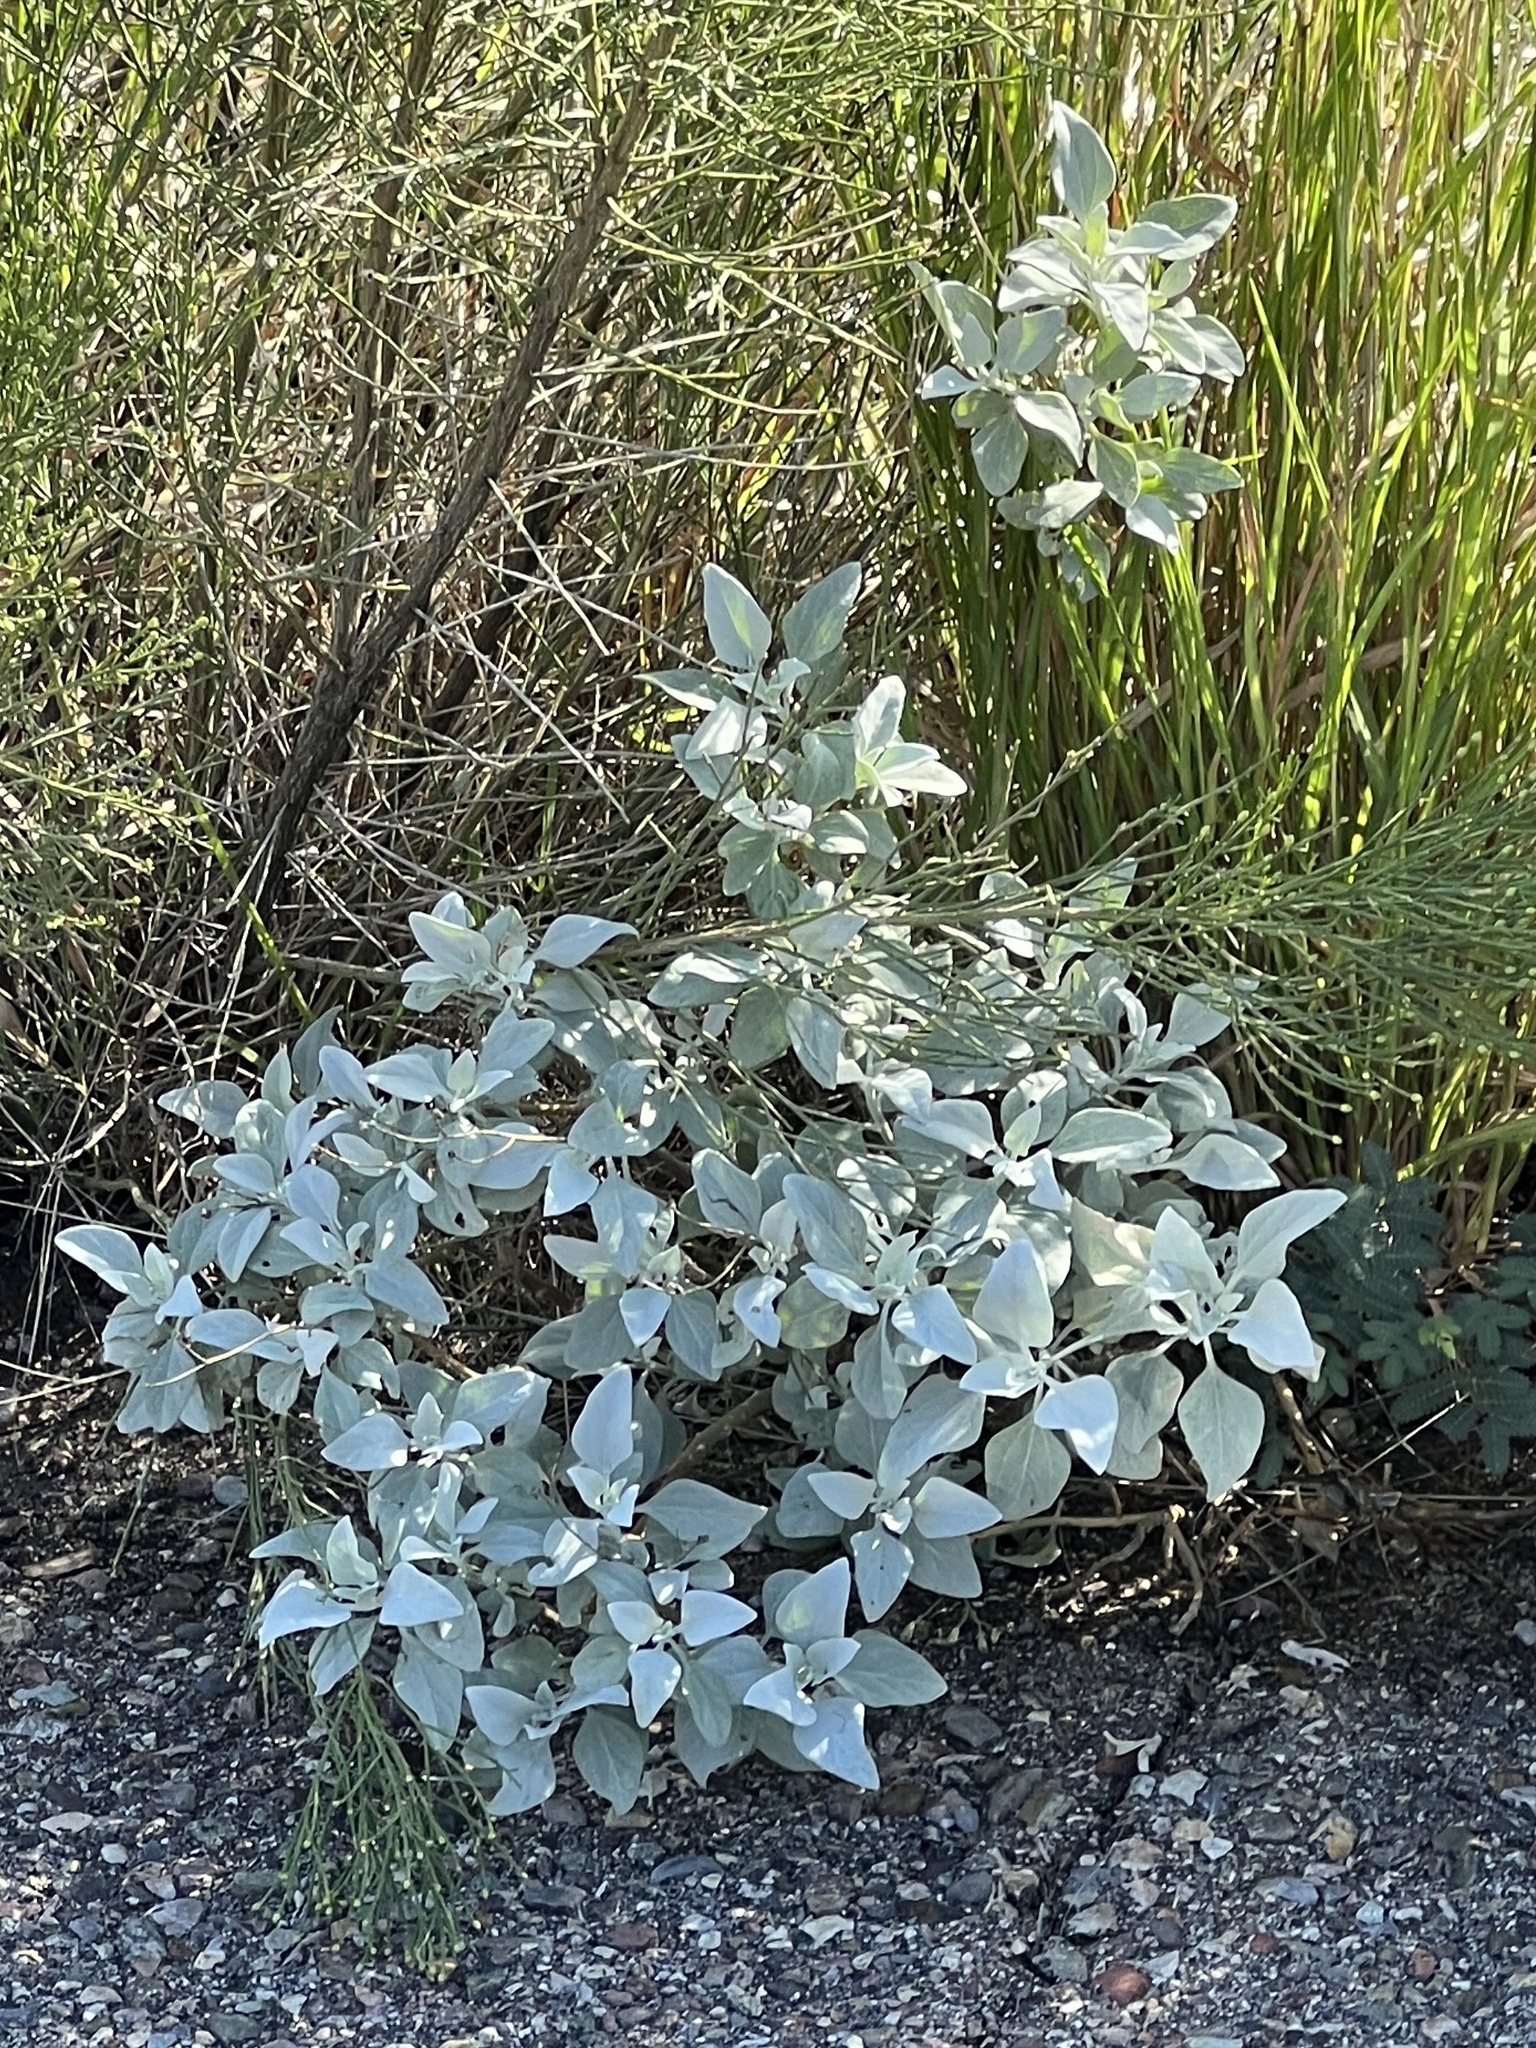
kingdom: Plantae
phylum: Tracheophyta
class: Magnoliopsida
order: Asterales
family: Asteraceae
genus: Encelia
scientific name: Encelia farinosa
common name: Brittlebush
